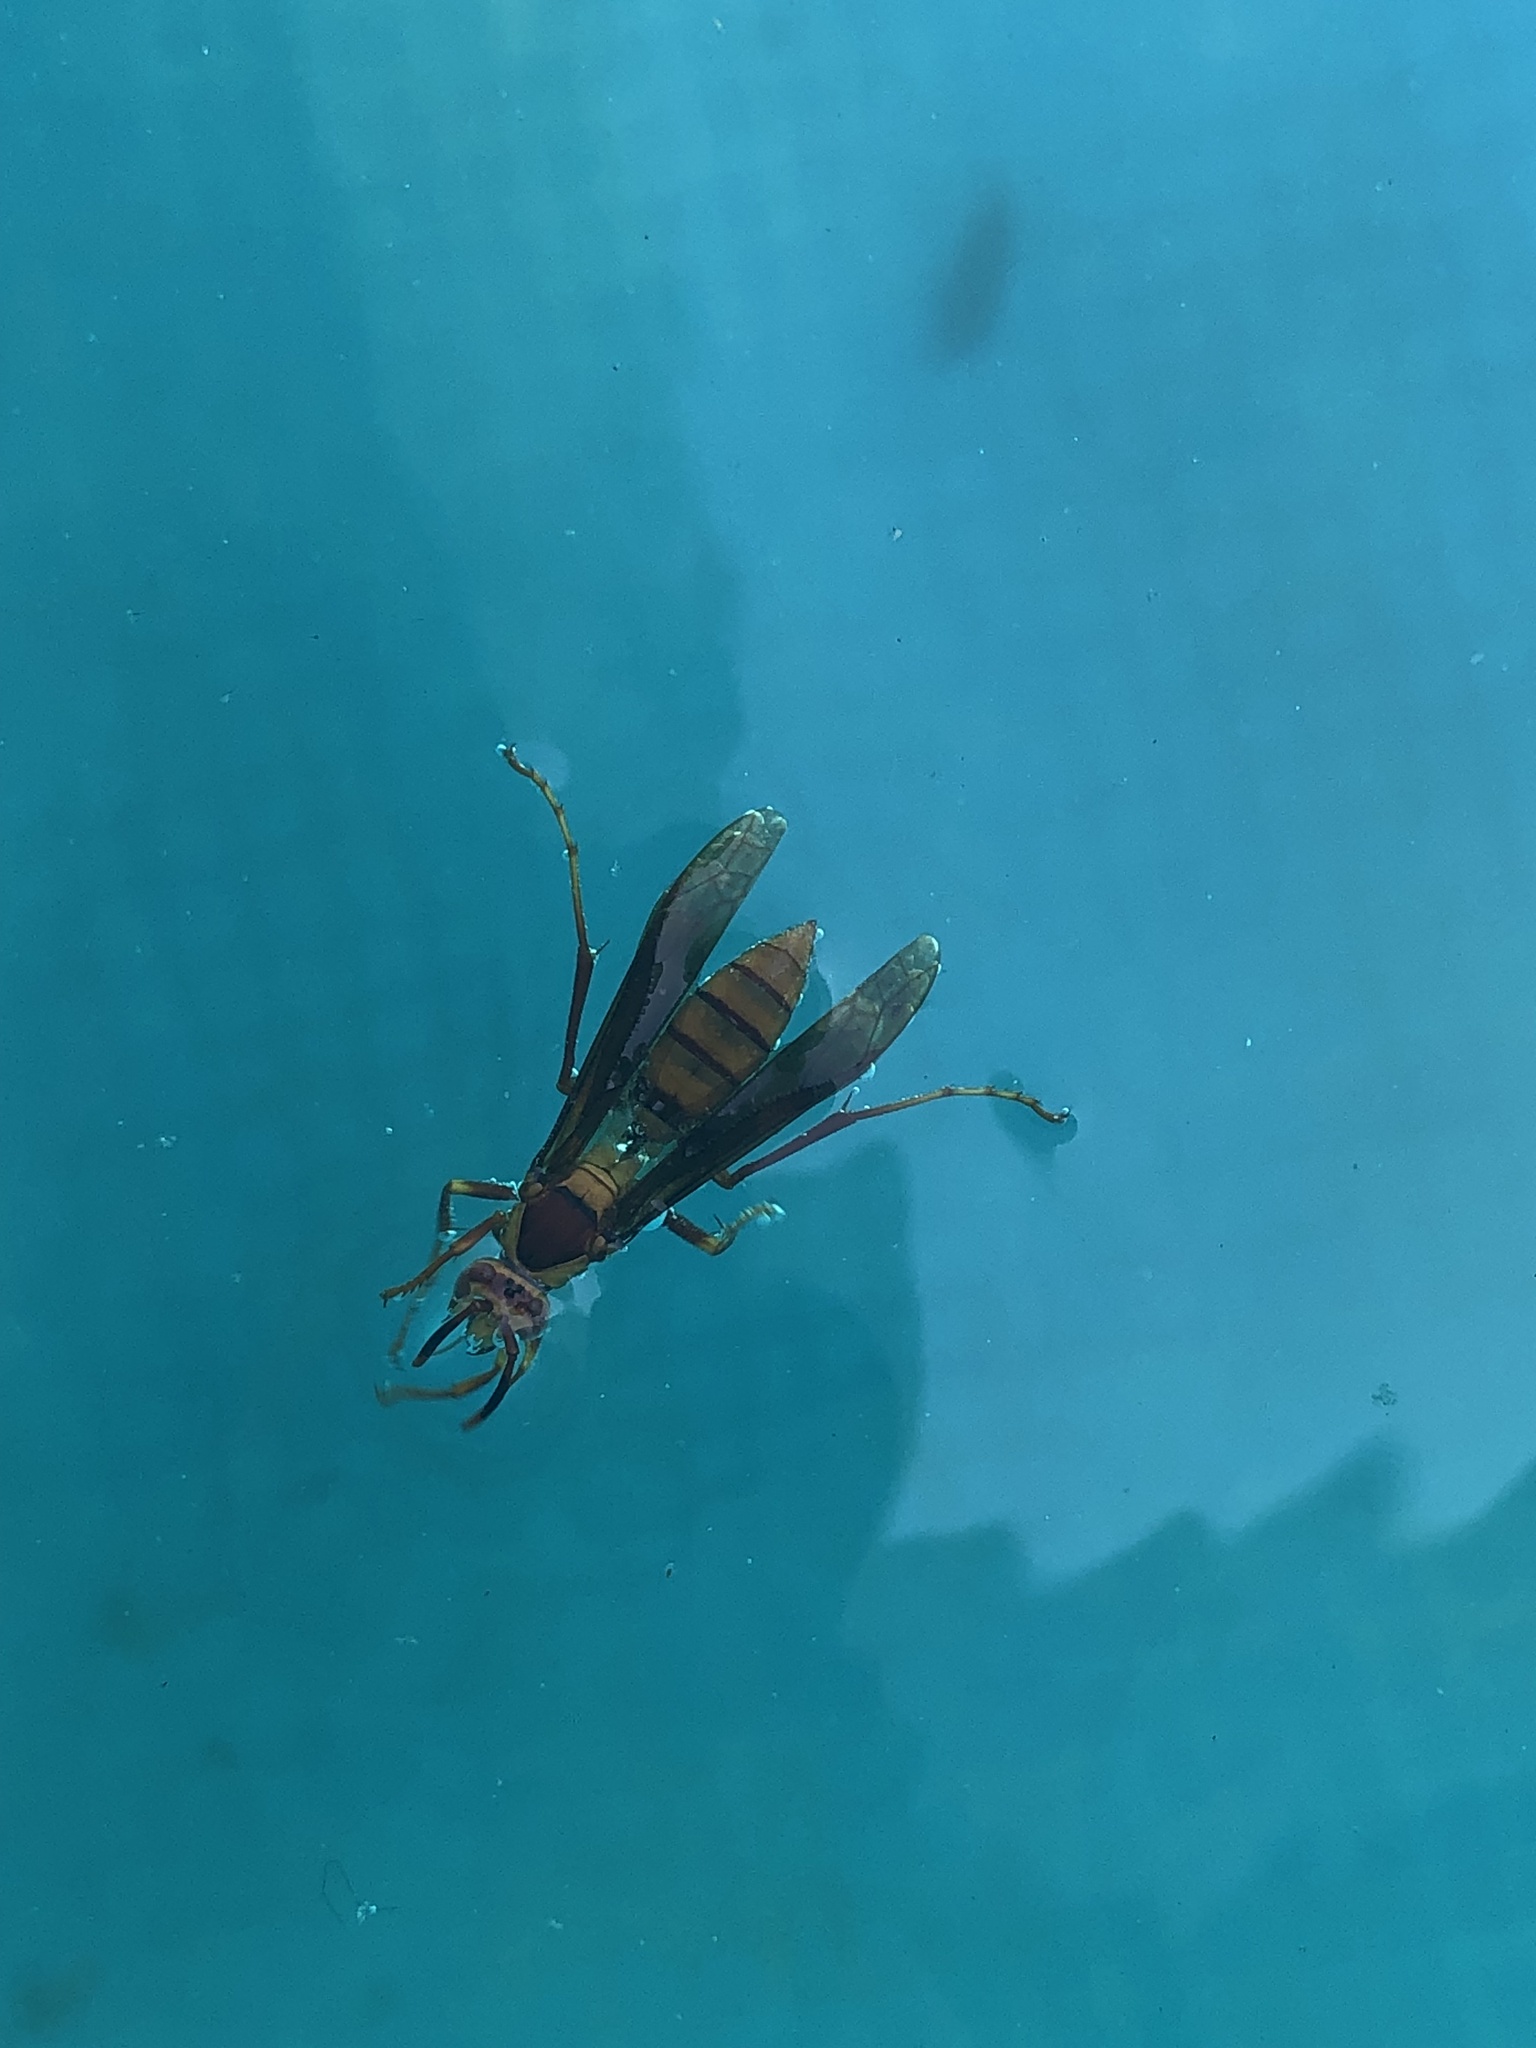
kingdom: Animalia
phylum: Arthropoda
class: Insecta
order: Hymenoptera
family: Eumenidae
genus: Polistes
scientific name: Polistes major
